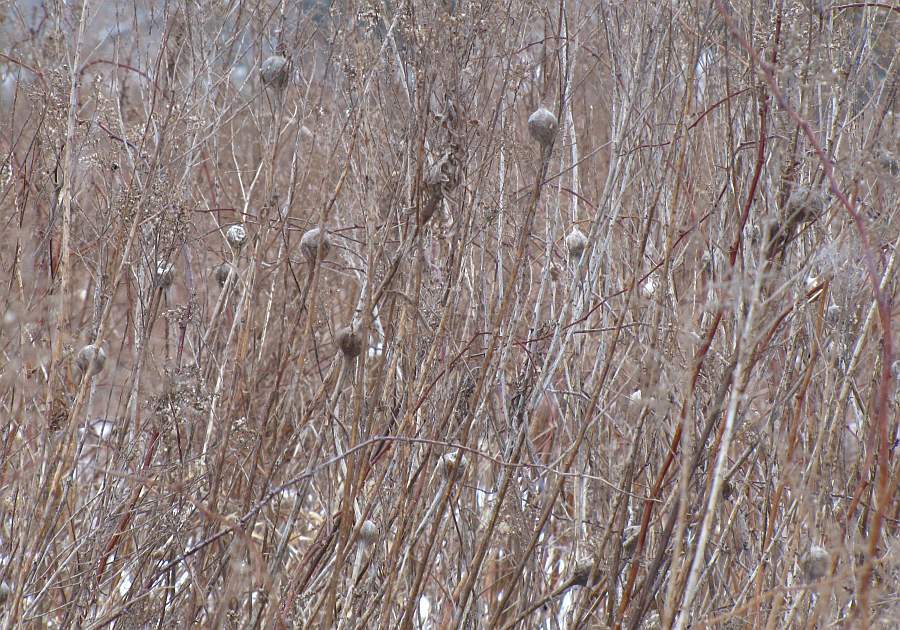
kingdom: Animalia
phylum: Arthropoda
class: Insecta
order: Diptera
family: Tephritidae
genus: Eurosta
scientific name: Eurosta solidaginis
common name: Goldenrod gall fly
